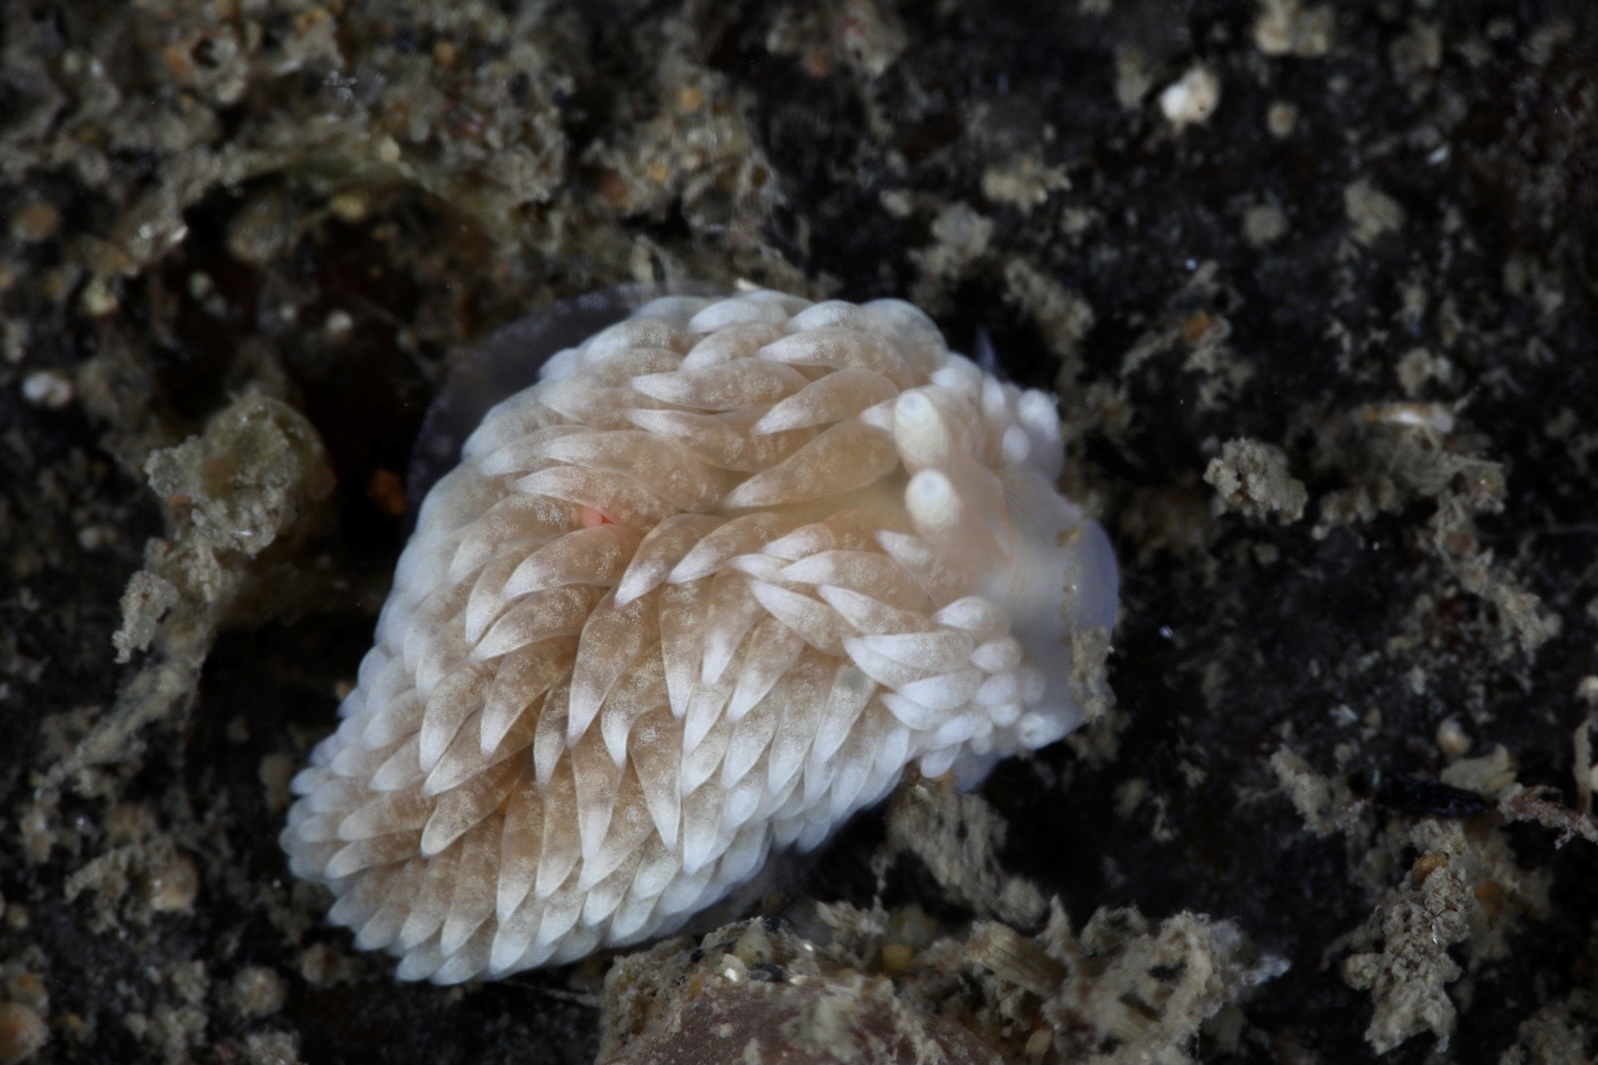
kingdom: Animalia
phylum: Mollusca
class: Gastropoda
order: Nudibranchia
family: Aeolidiidae
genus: Aeolidiella
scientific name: Aeolidiella glauca
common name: Orange-brown aeolid
